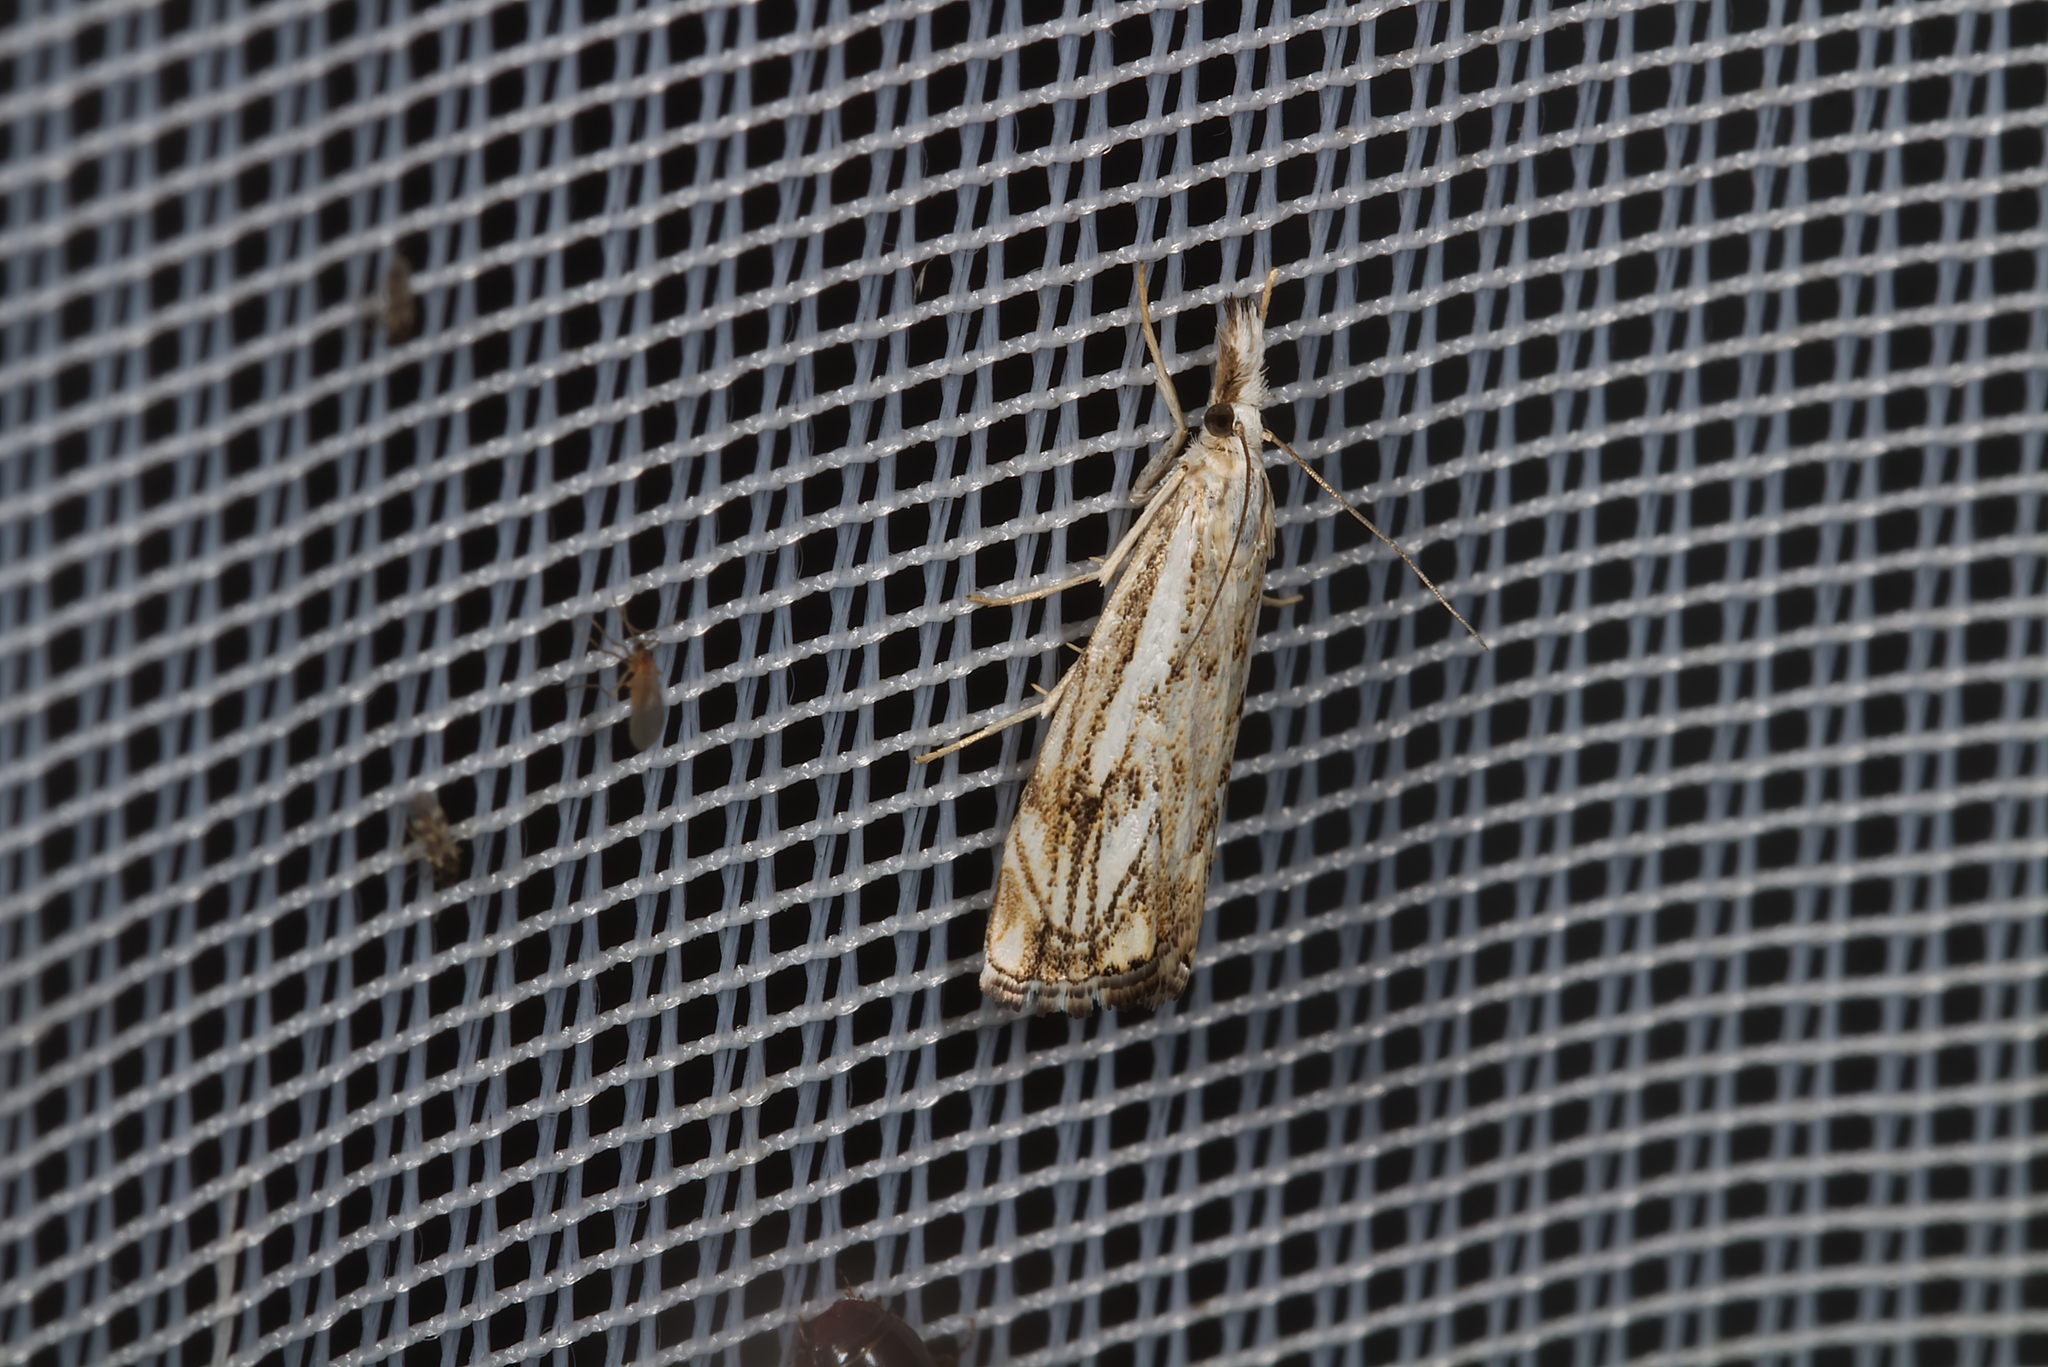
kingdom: Animalia
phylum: Arthropoda
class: Insecta
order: Lepidoptera
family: Crambidae
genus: Catoptria
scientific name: Catoptria falsella
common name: Chequered grass-veneer
